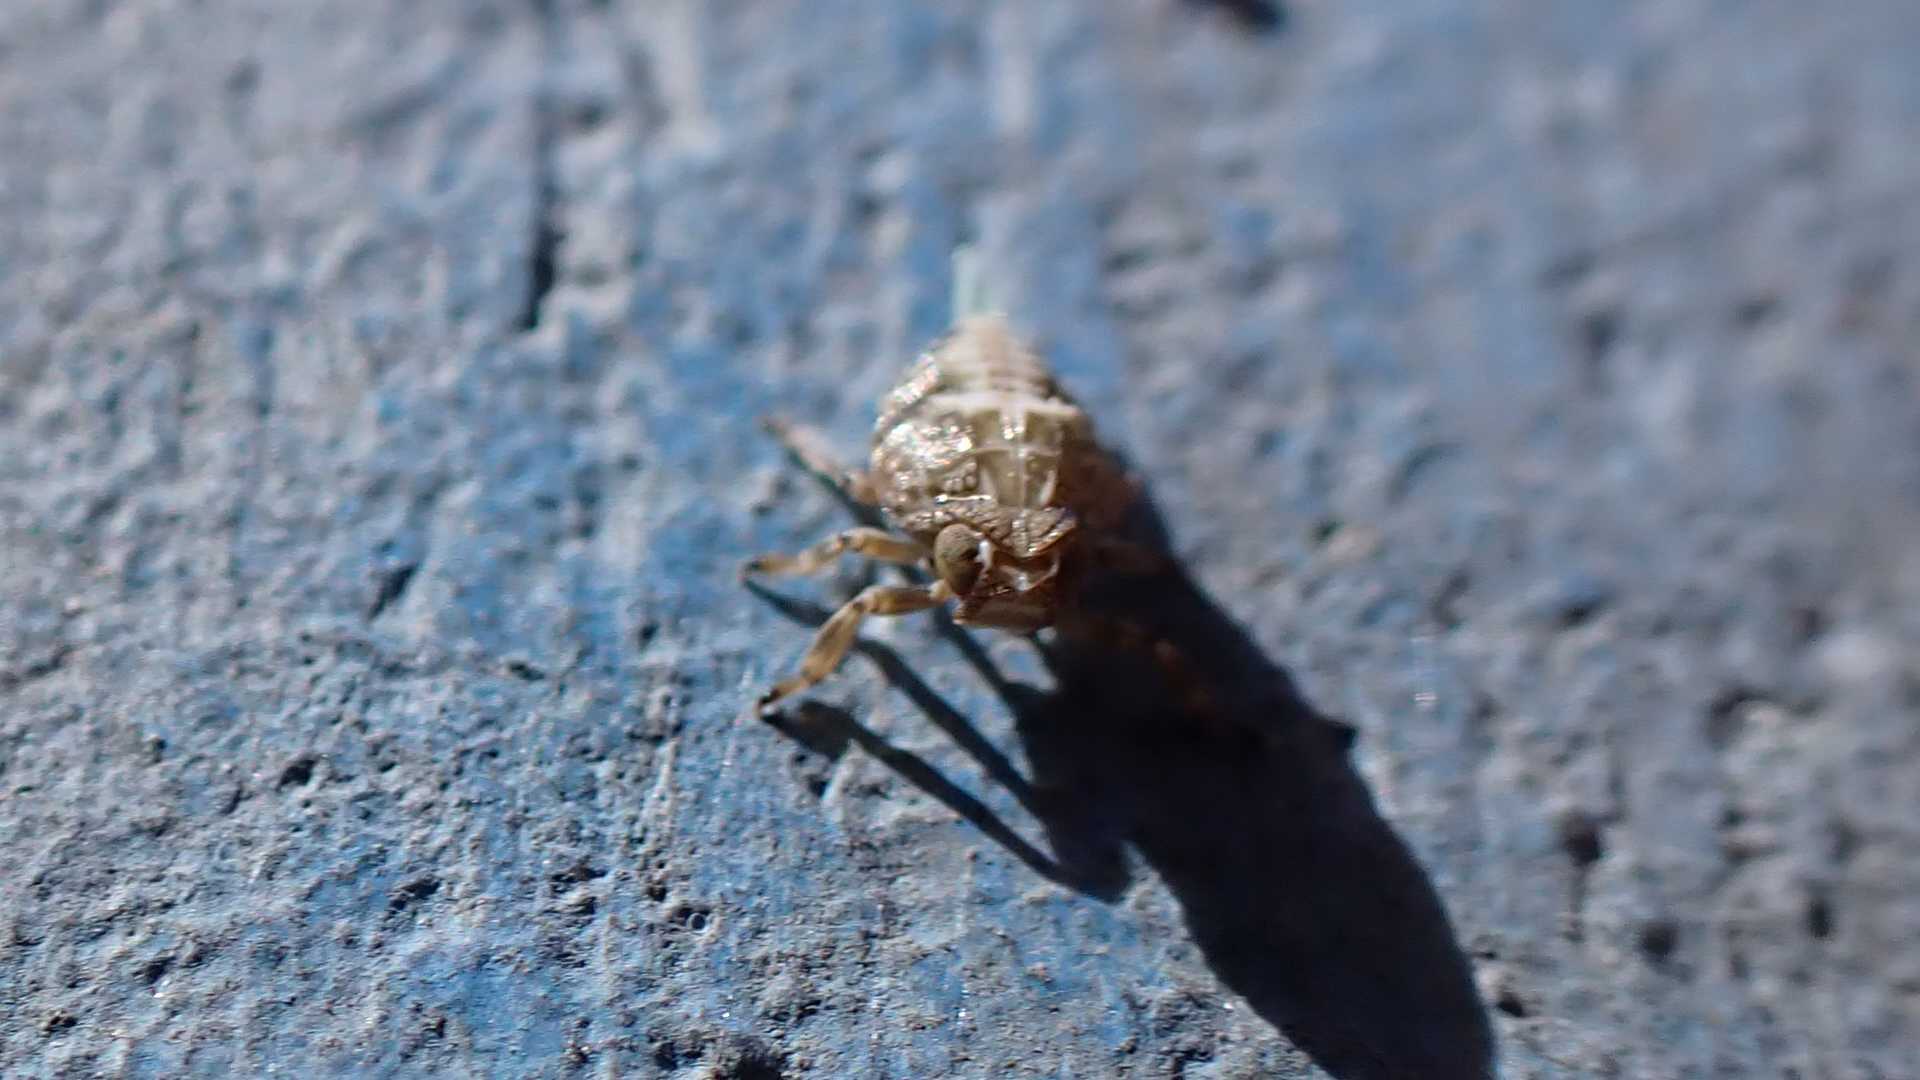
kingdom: Animalia
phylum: Arthropoda
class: Insecta
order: Hemiptera
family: Issidae
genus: Issus
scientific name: Issus coleoptratus
